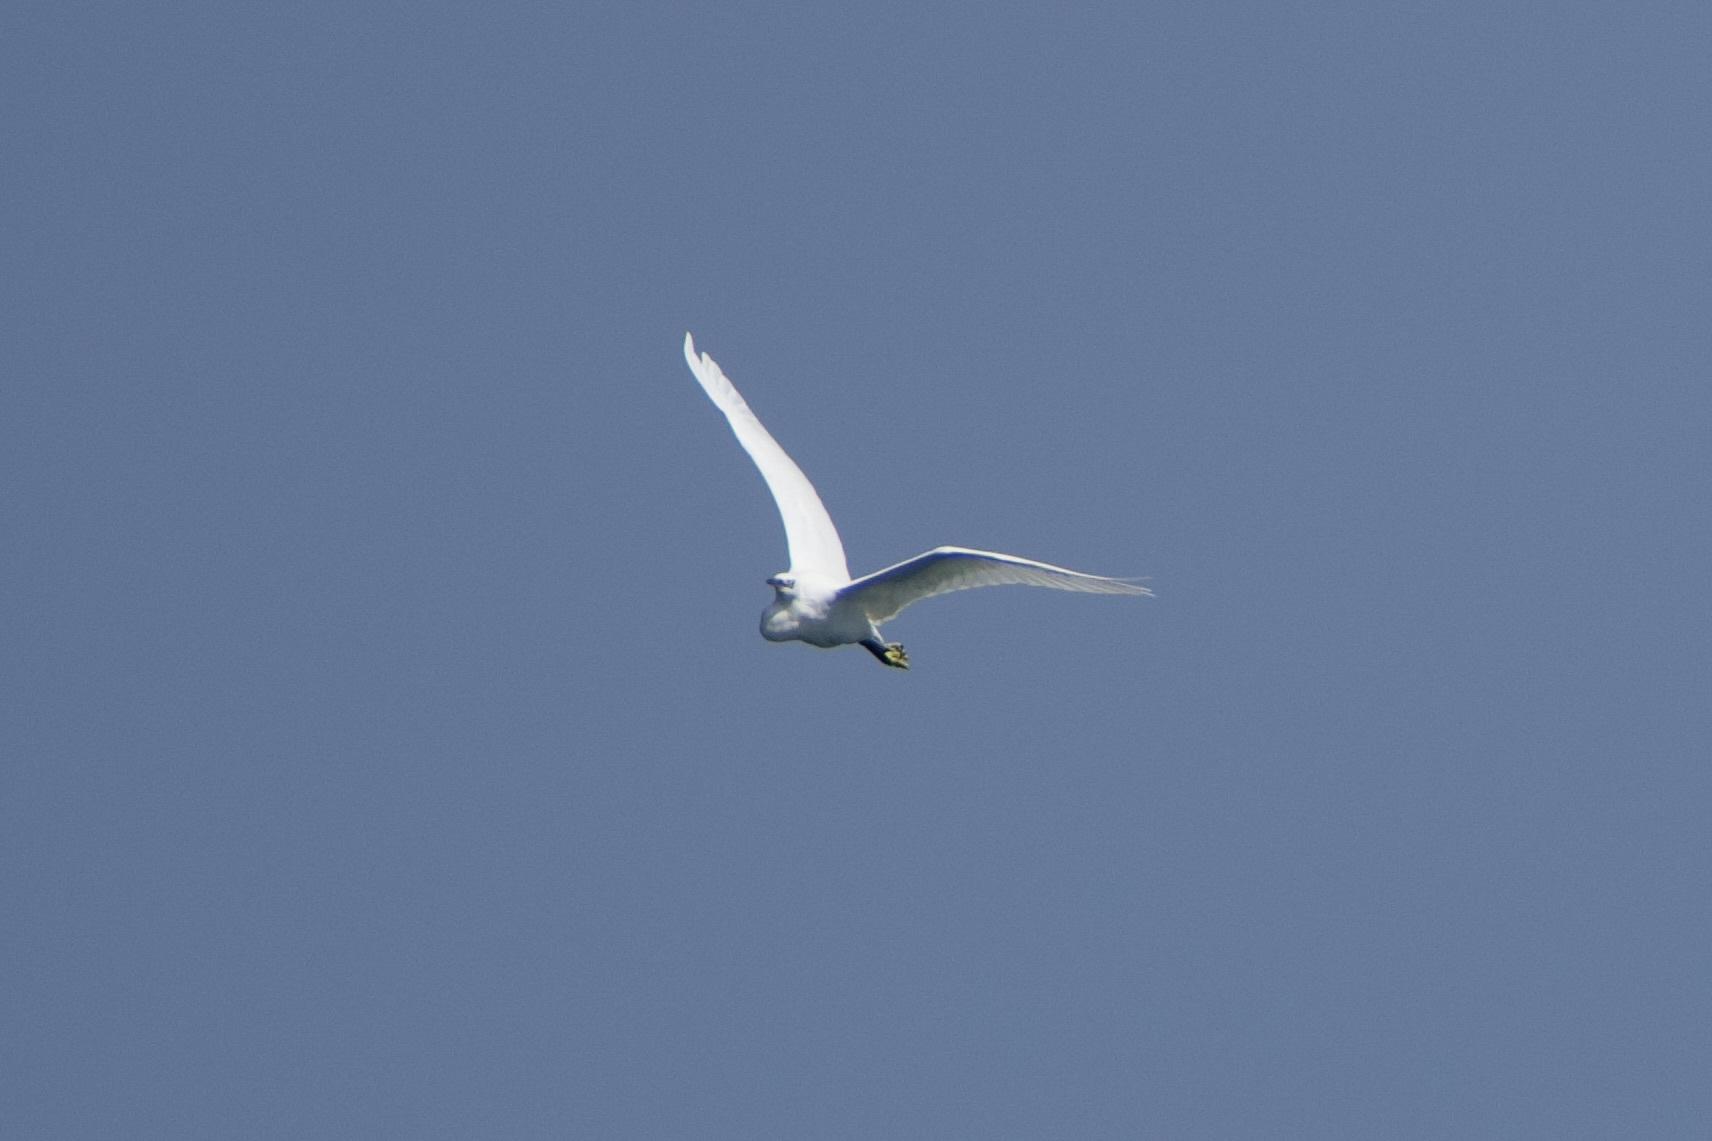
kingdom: Animalia
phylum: Chordata
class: Aves
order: Pelecaniformes
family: Ardeidae
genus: Egretta
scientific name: Egretta garzetta
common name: Little egret
